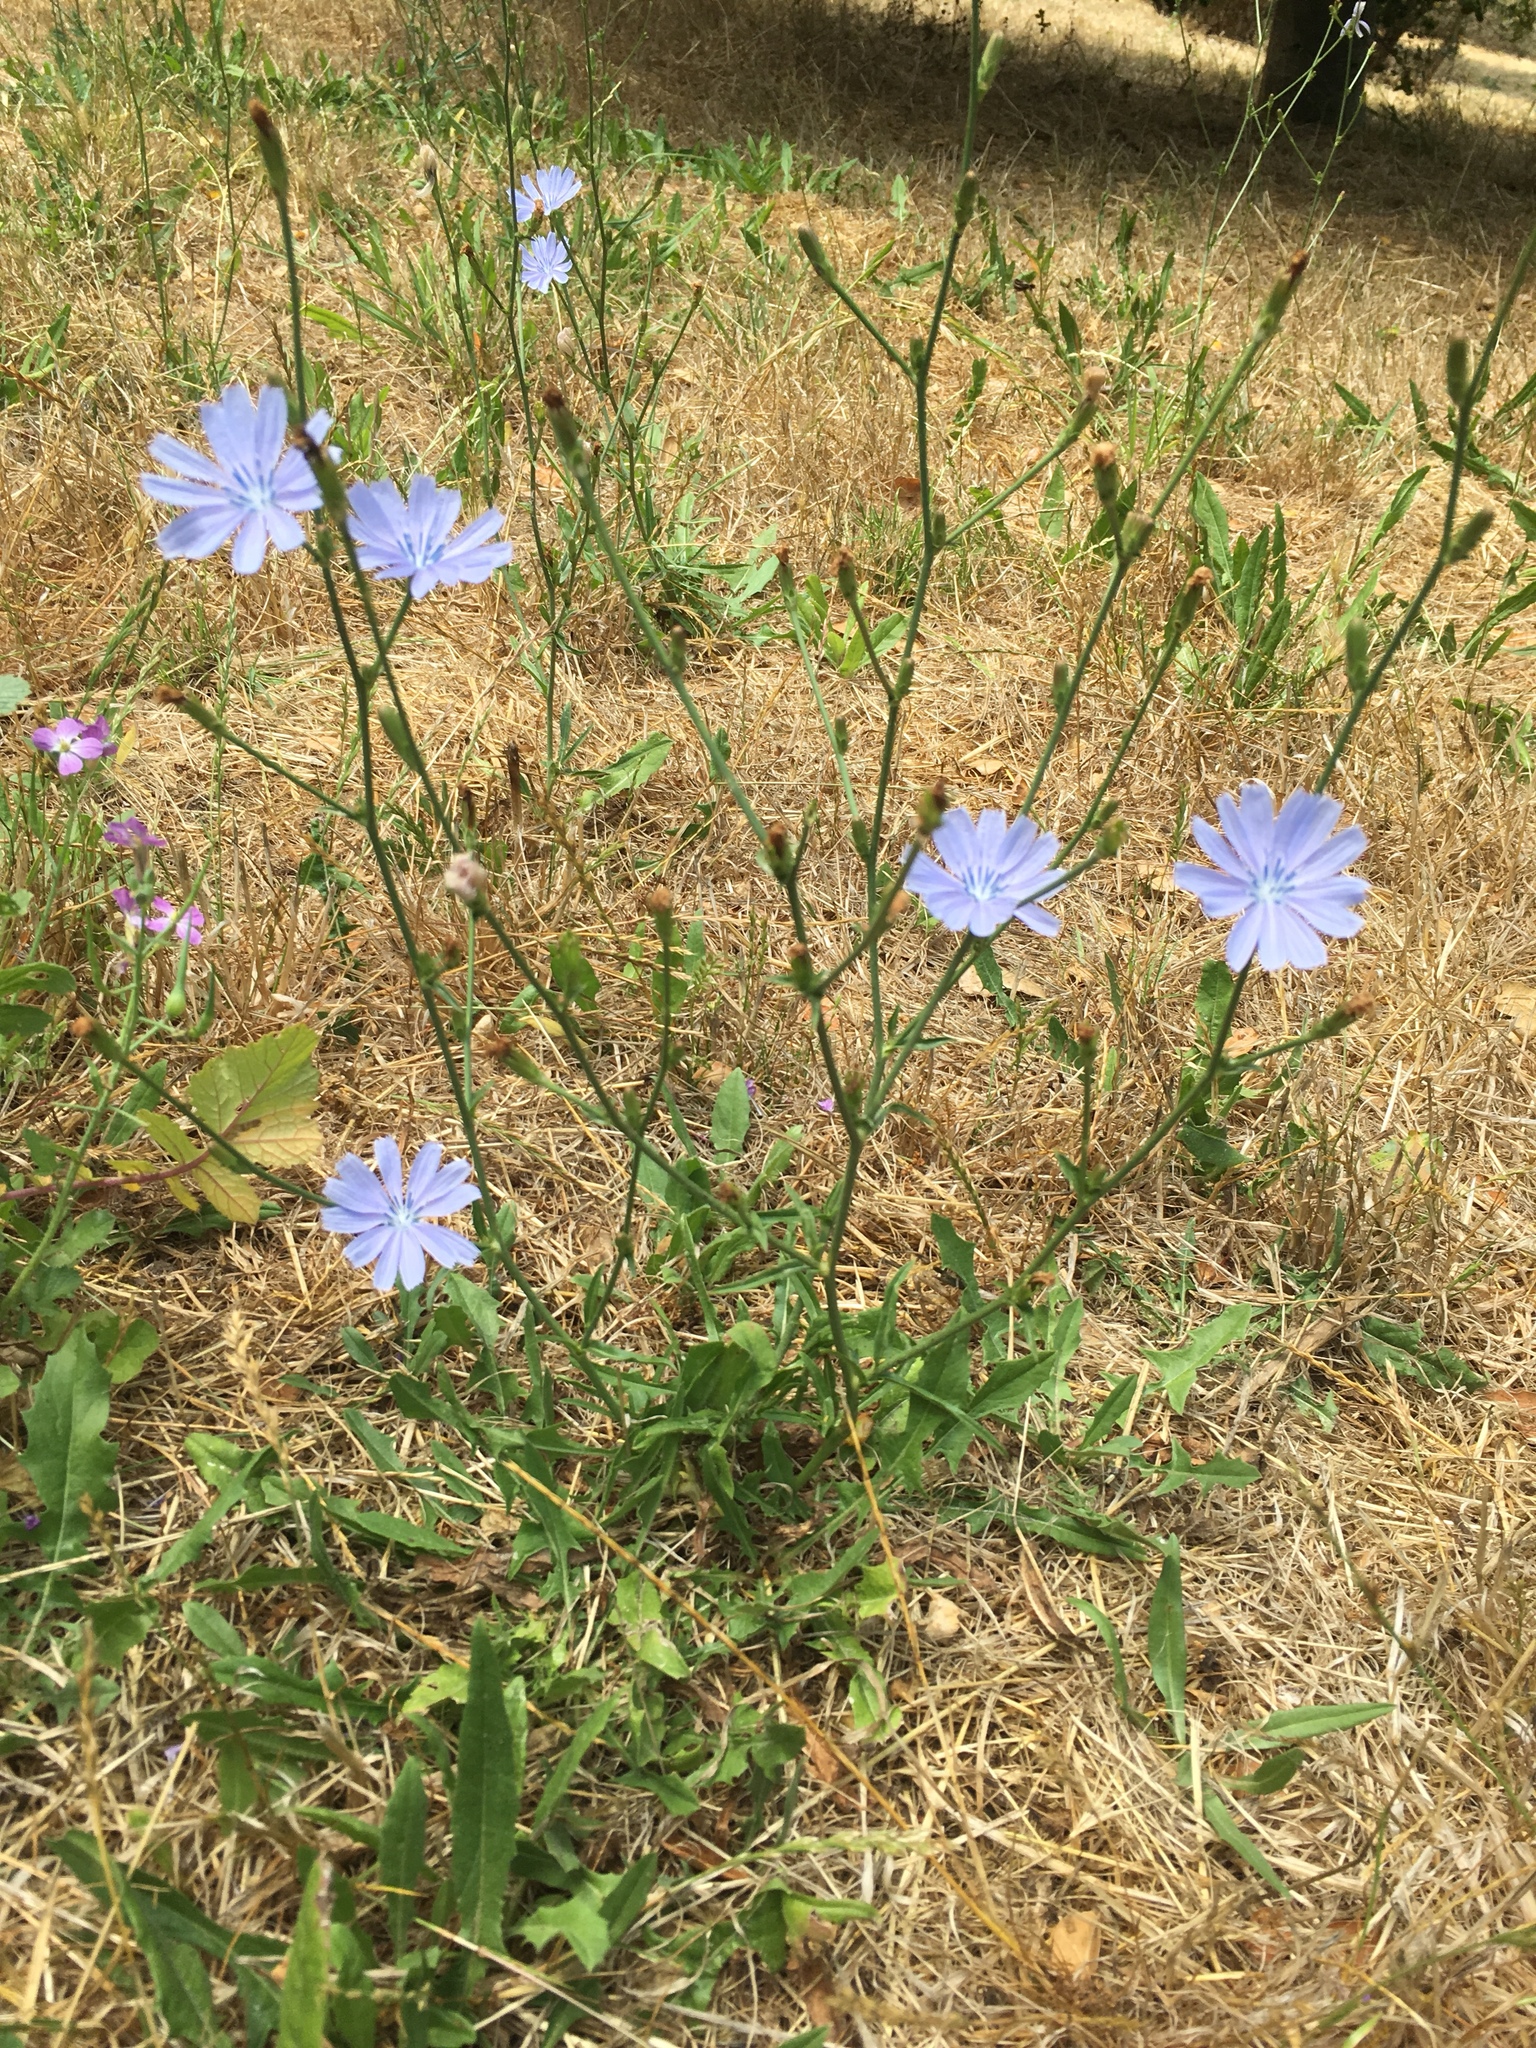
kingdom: Plantae
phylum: Tracheophyta
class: Magnoliopsida
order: Asterales
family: Asteraceae
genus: Cichorium
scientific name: Cichorium intybus
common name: Chicory
